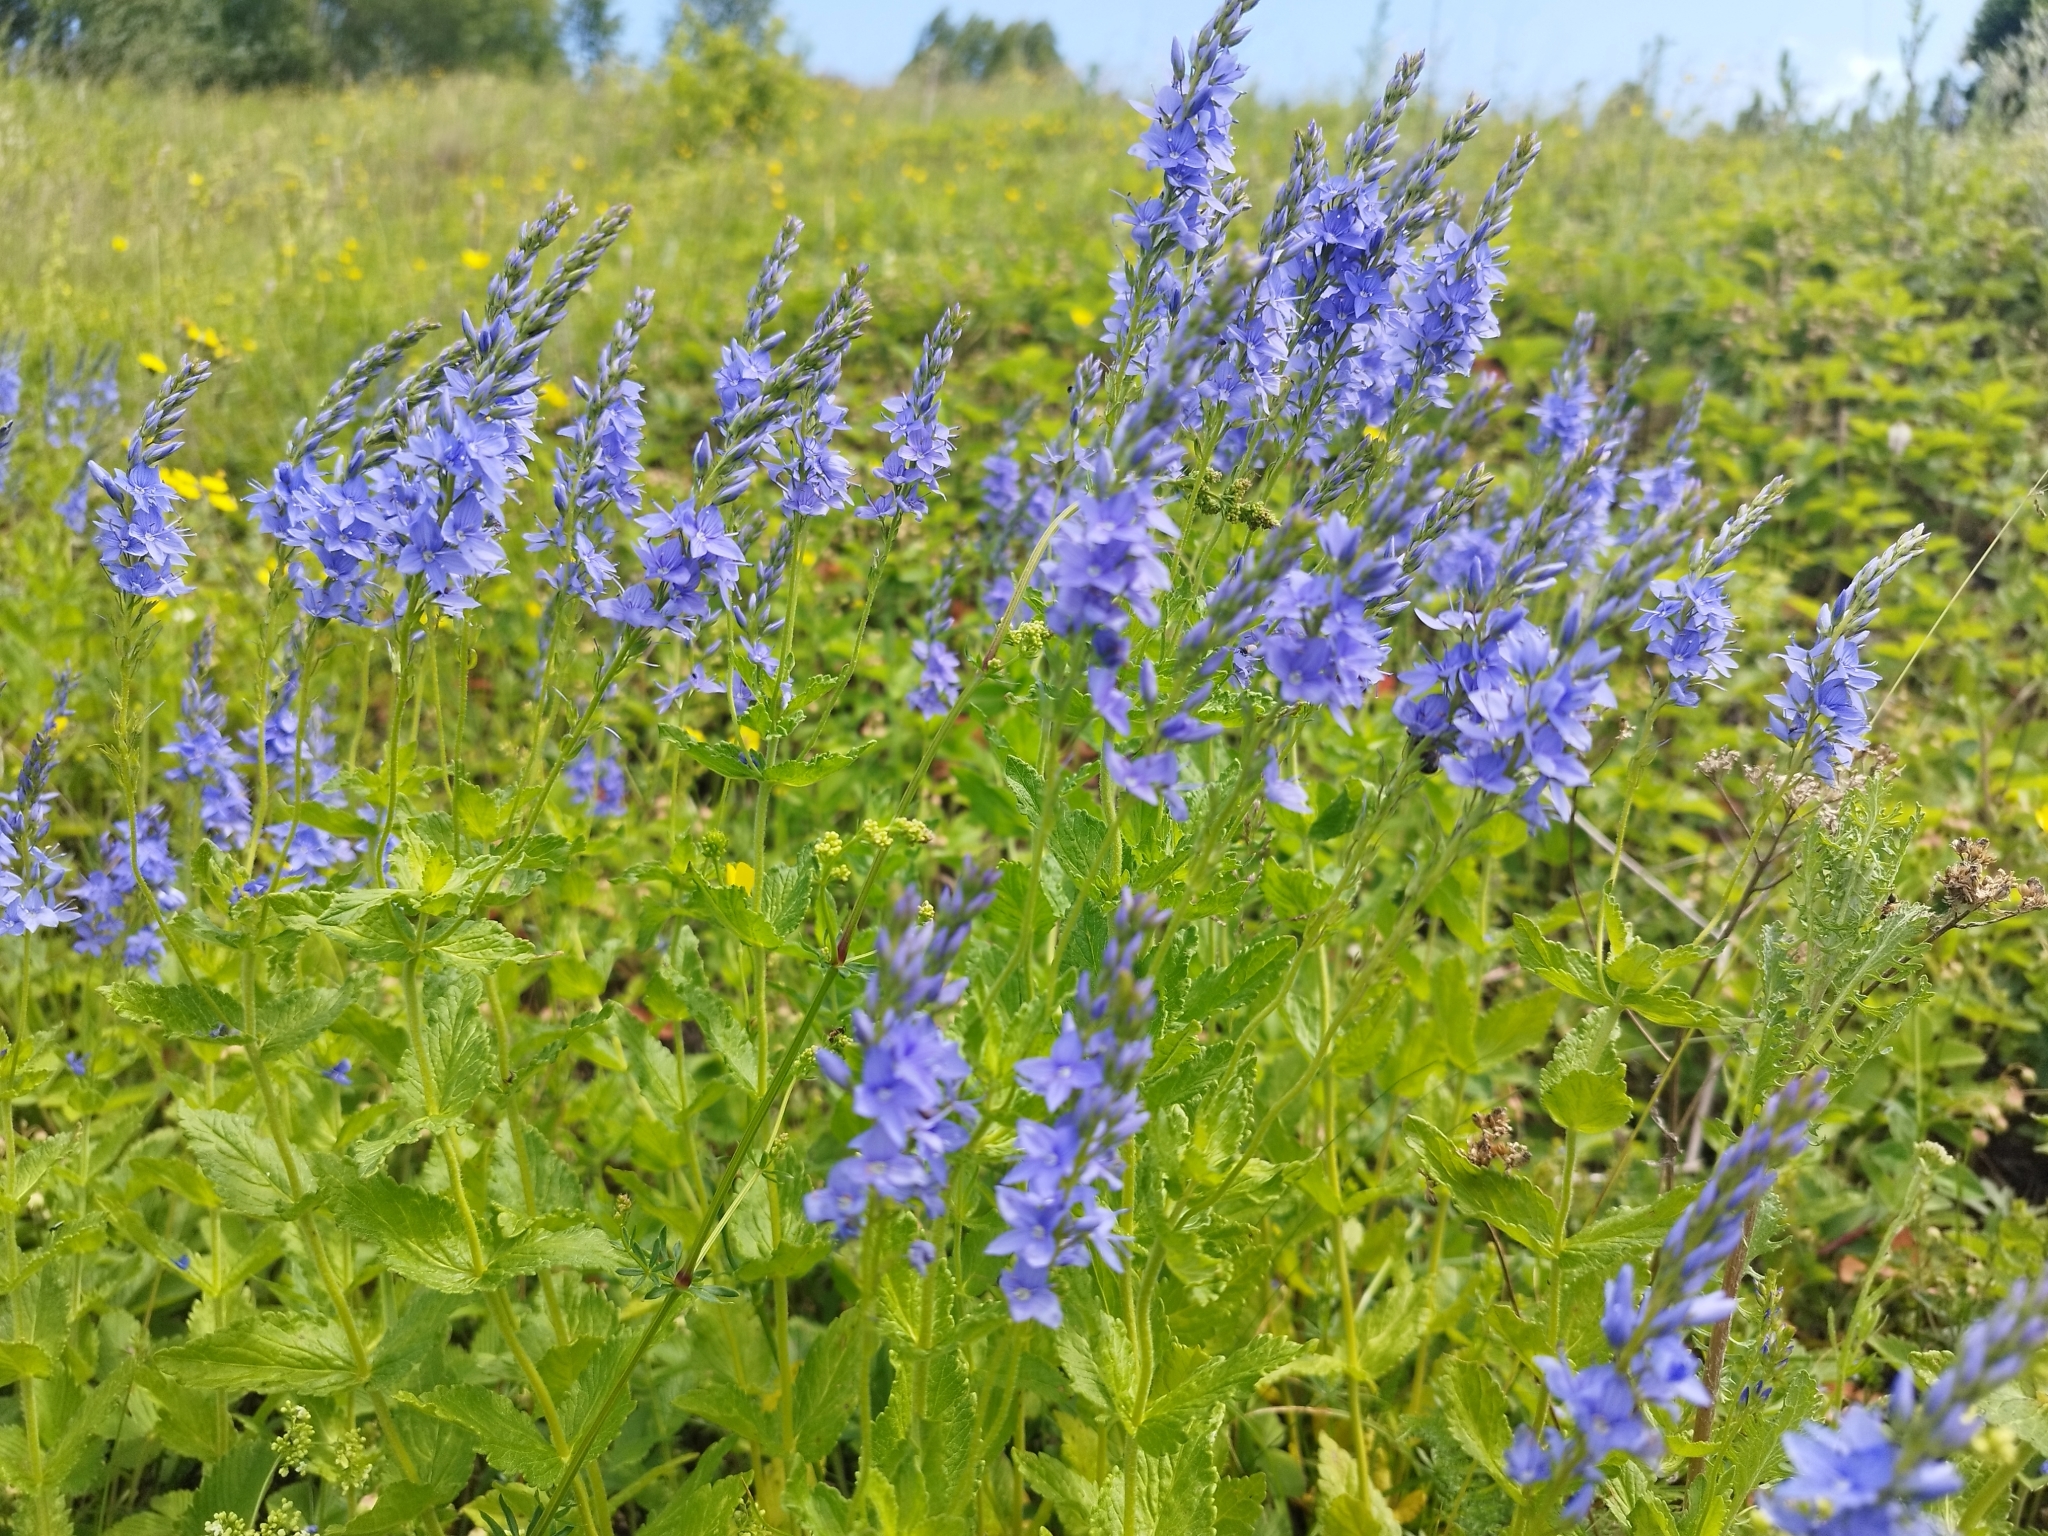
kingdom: Plantae
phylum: Tracheophyta
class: Magnoliopsida
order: Lamiales
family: Plantaginaceae
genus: Veronica
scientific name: Veronica teucrium
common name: Large speedwell
